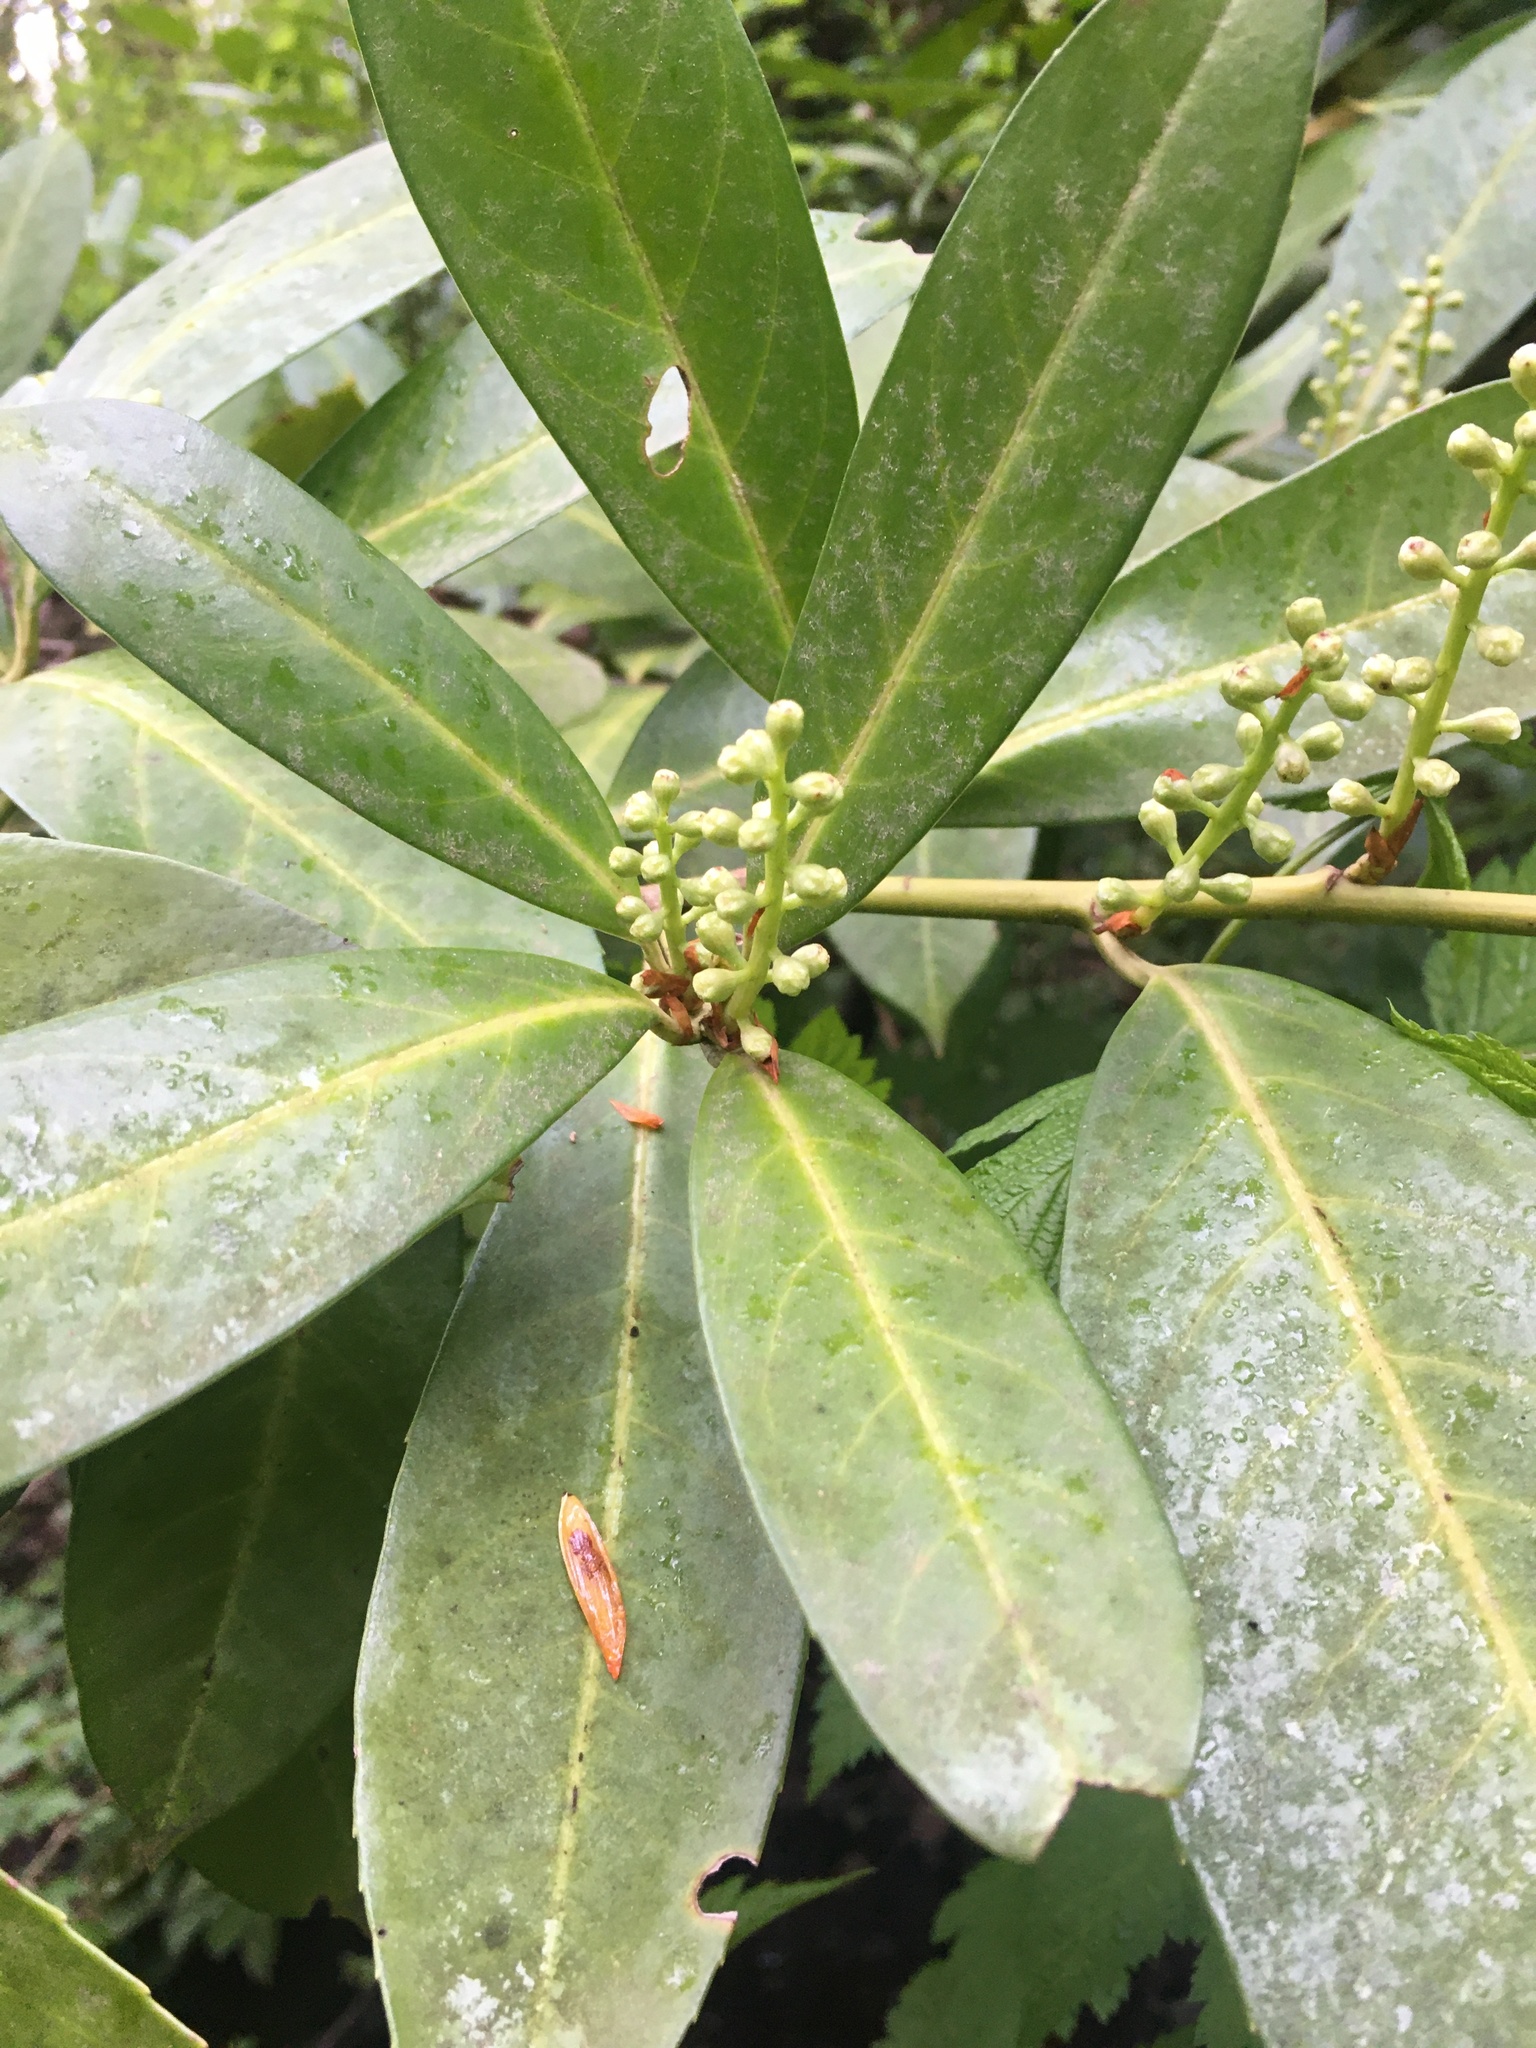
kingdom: Plantae
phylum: Tracheophyta
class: Magnoliopsida
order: Rosales
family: Rosaceae
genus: Prunus
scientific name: Prunus laurocerasus
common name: Cherry laurel
